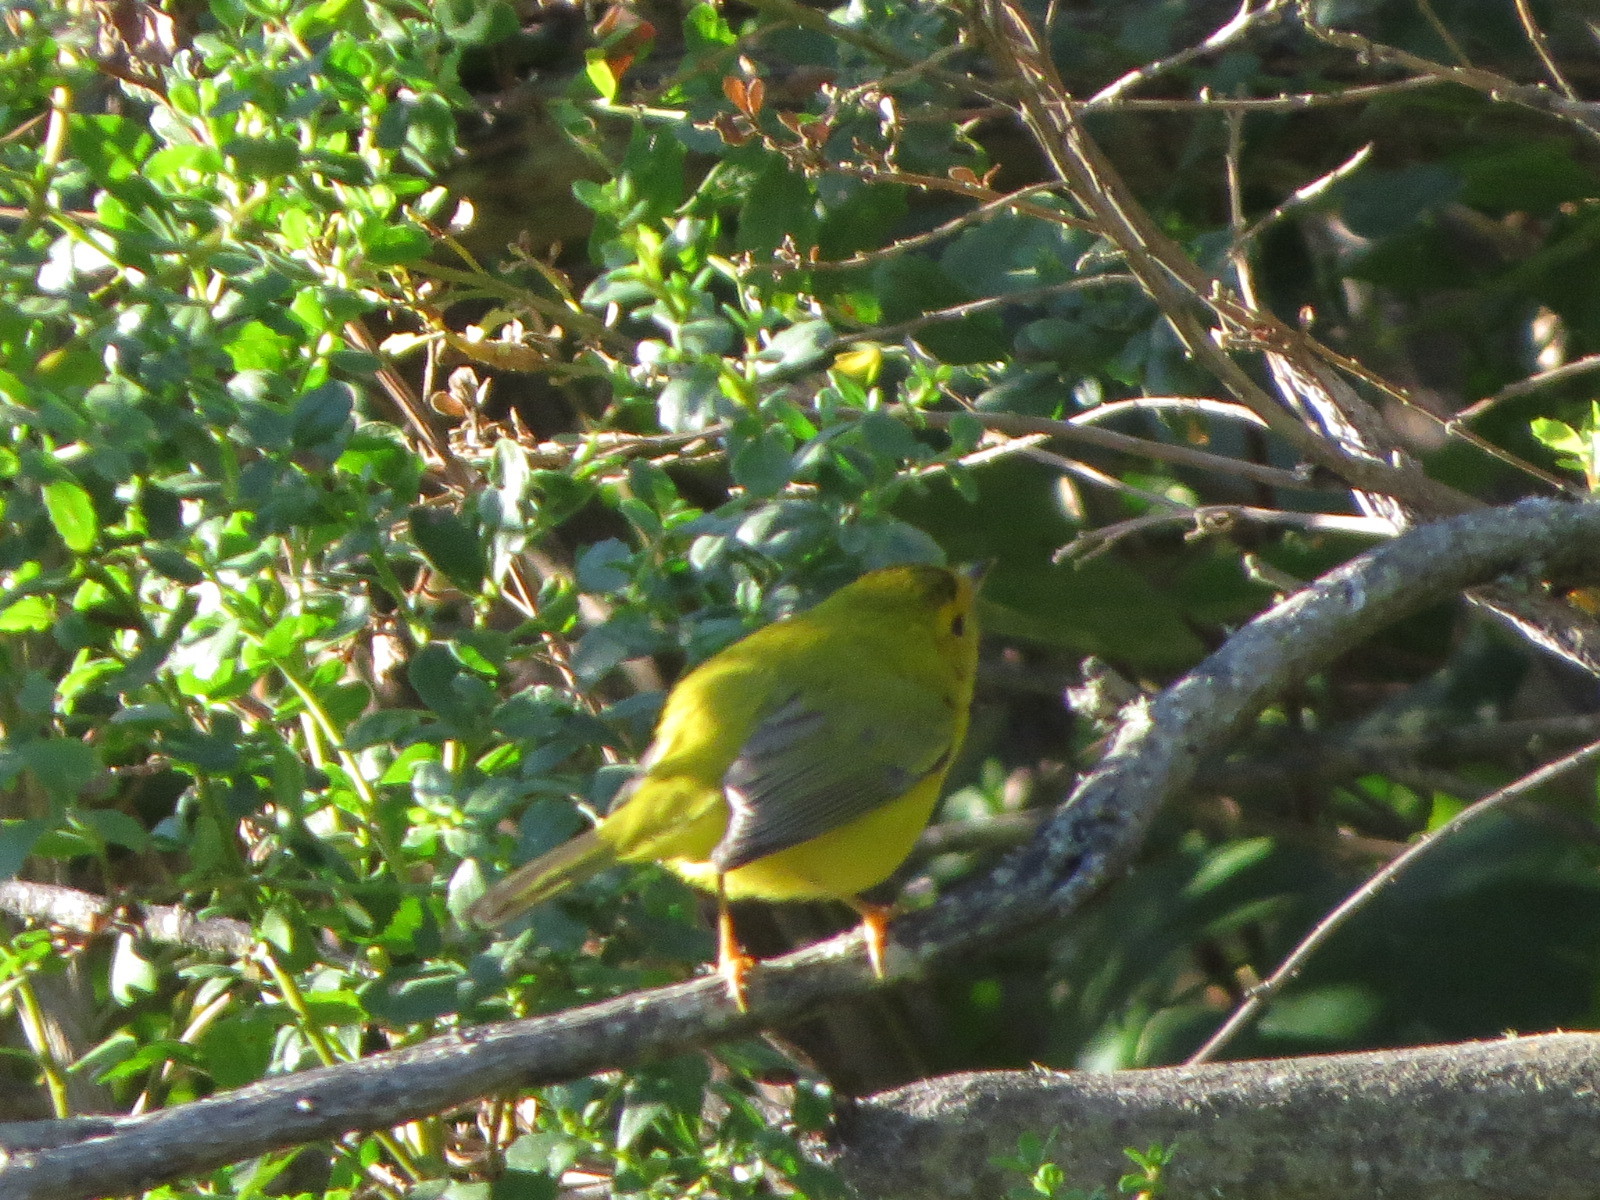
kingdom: Animalia
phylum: Chordata
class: Aves
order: Passeriformes
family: Parulidae
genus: Cardellina
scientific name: Cardellina pusilla
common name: Wilson's warbler
